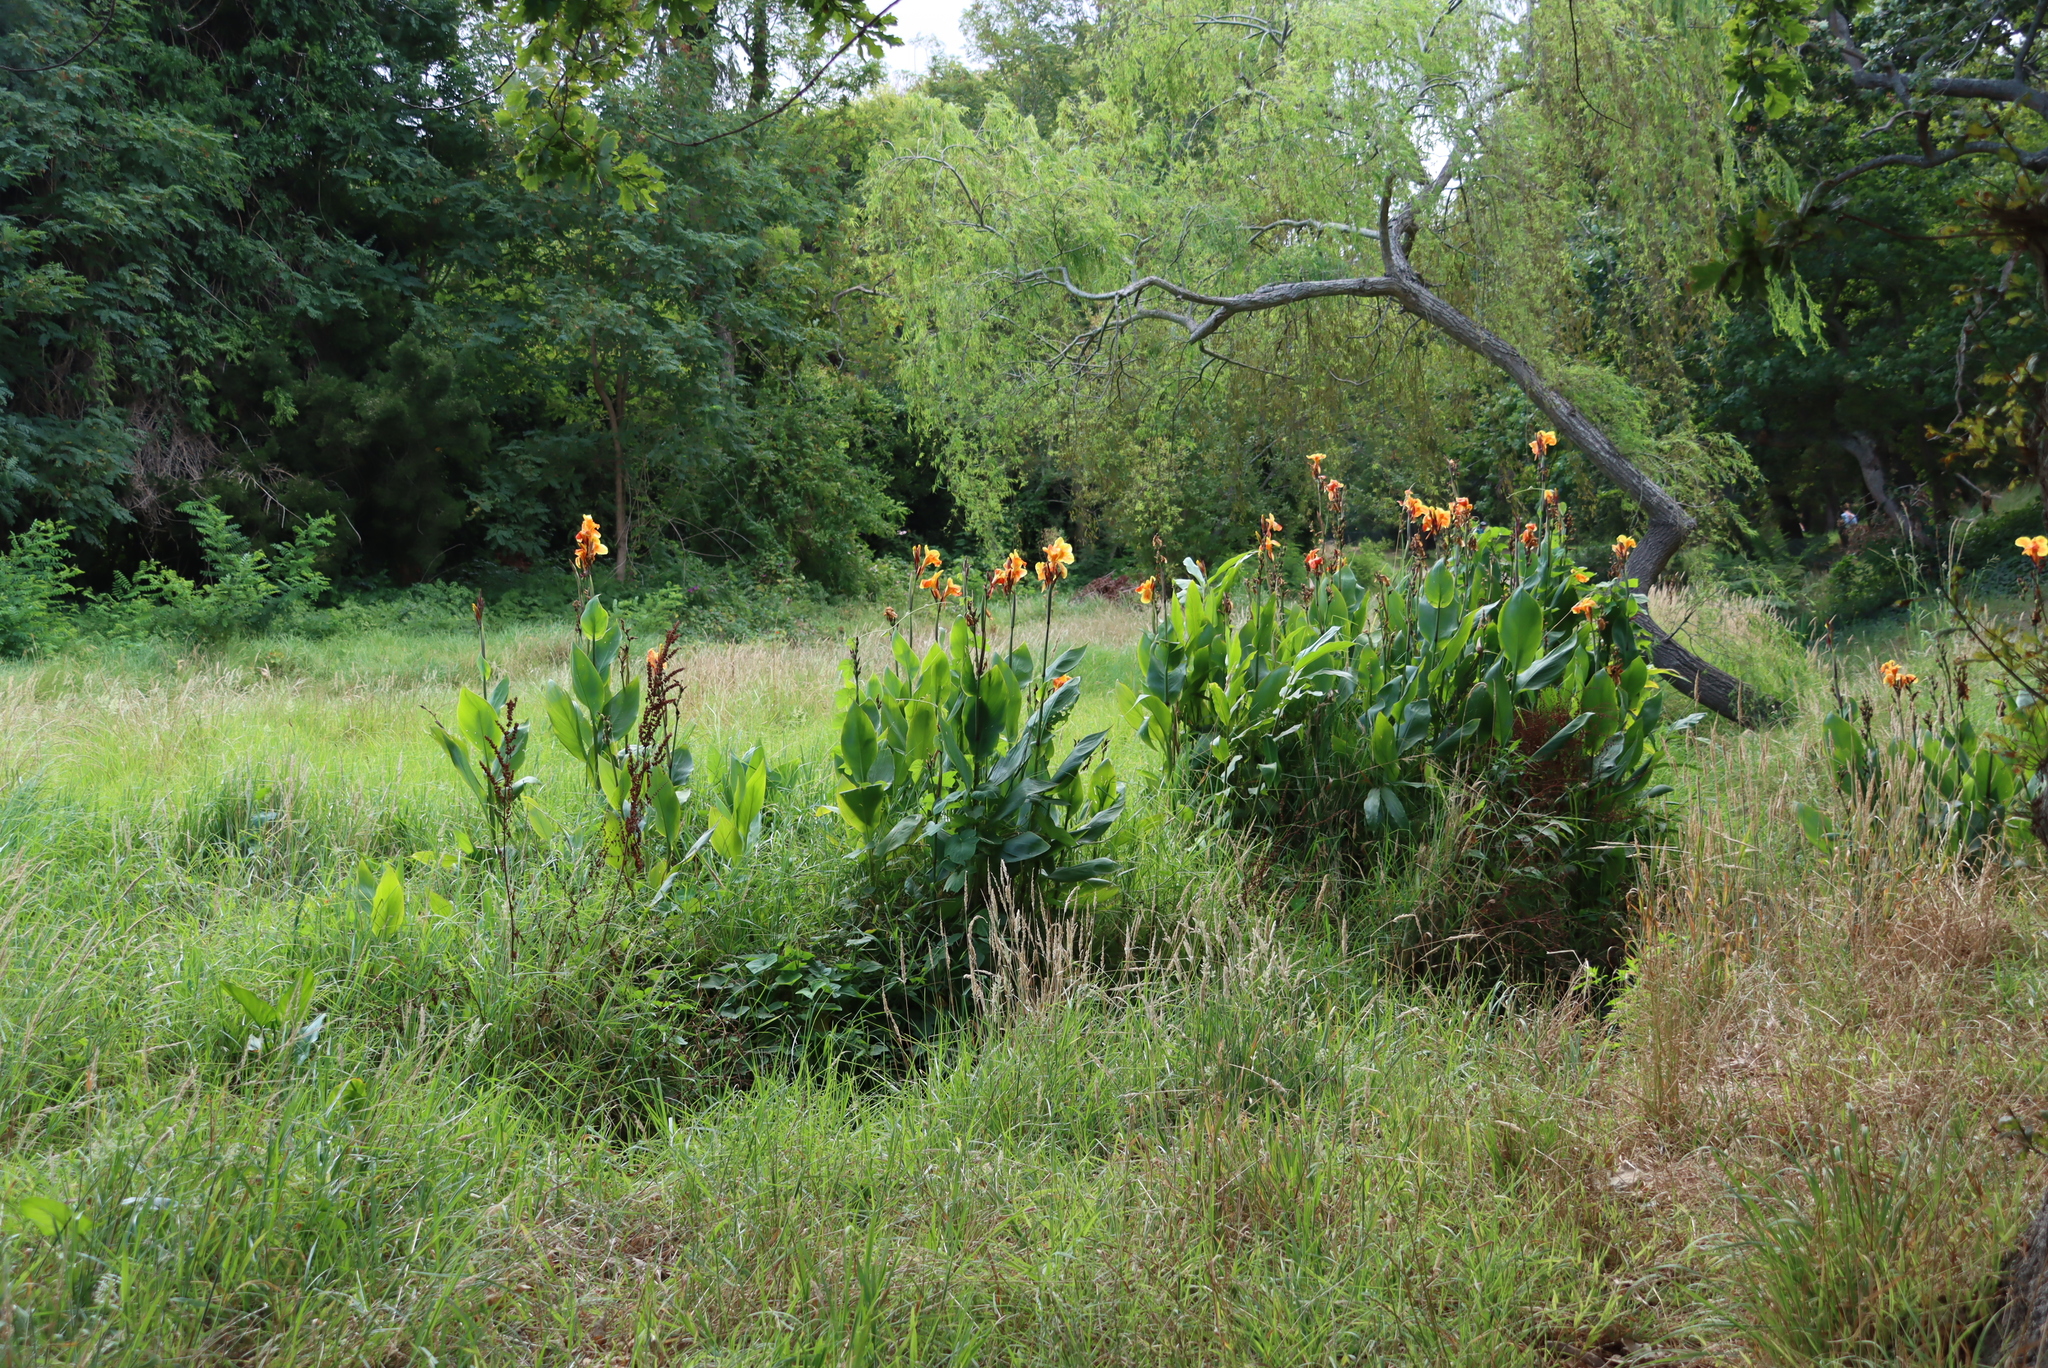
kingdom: Plantae
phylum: Tracheophyta
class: Liliopsida
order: Zingiberales
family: Cannaceae
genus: Canna
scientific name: Canna indica
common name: Indian shot
